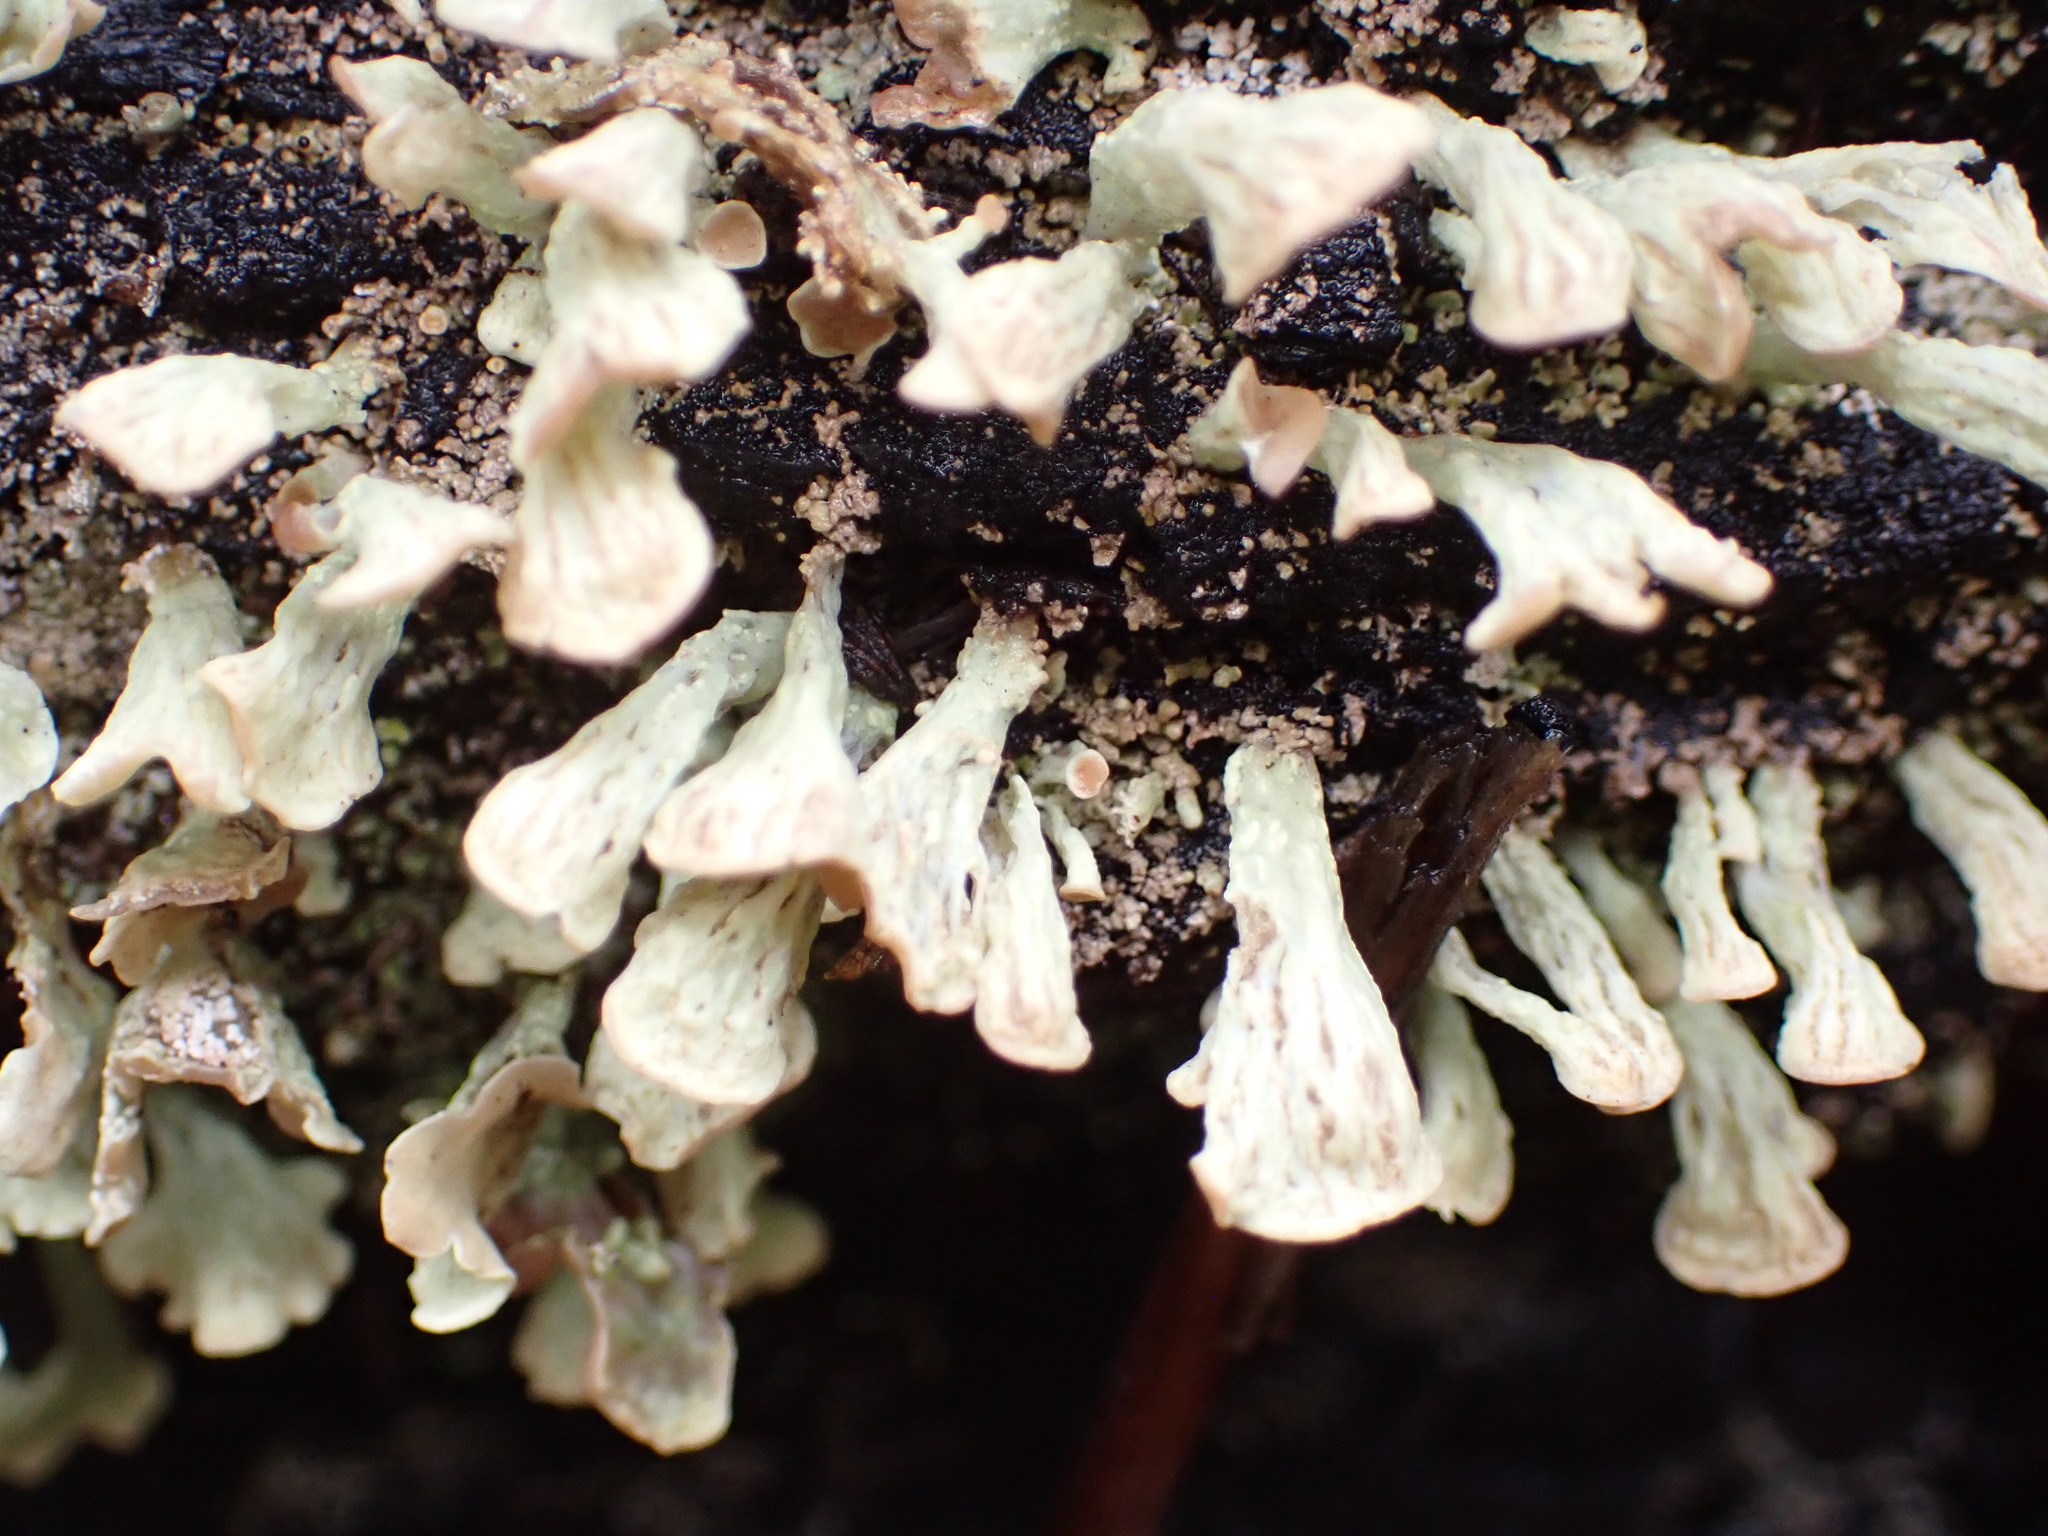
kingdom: Fungi
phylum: Ascomycota
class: Lecanoromycetes
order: Lecanorales
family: Cladoniaceae
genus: Thysanothecium
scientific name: Thysanothecium scutellatum
